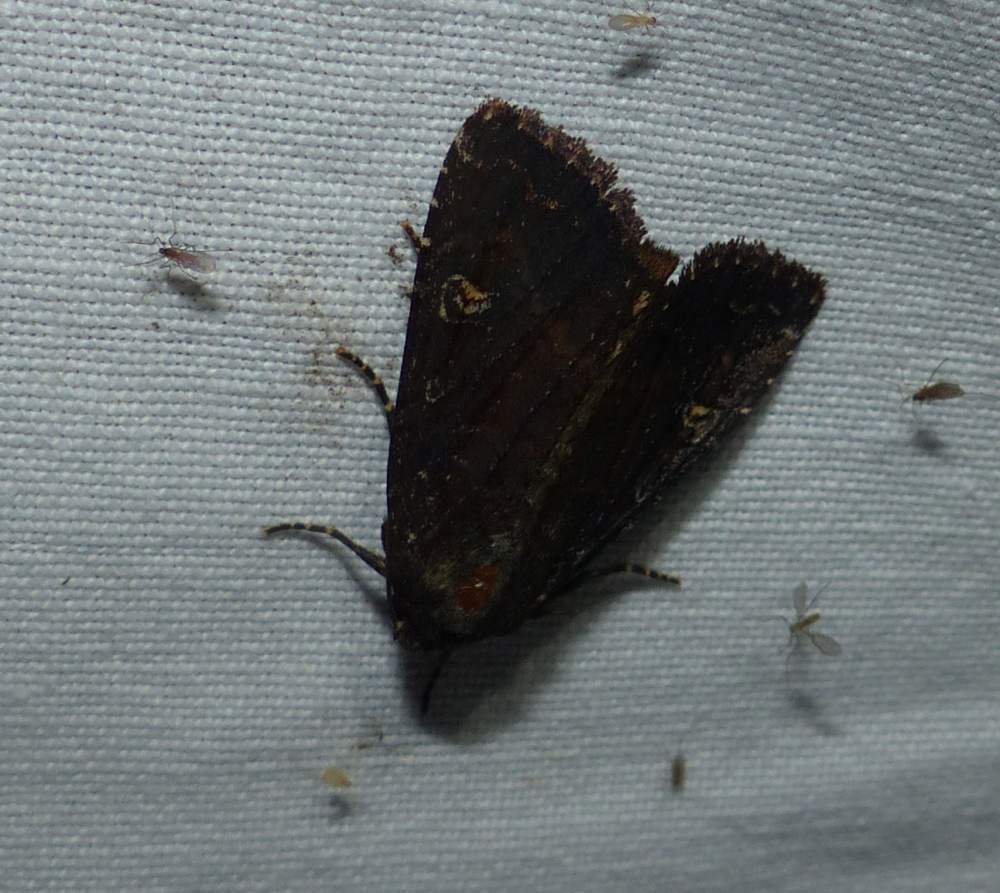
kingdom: Animalia
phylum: Arthropoda
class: Insecta
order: Lepidoptera
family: Noctuidae
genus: Apamea
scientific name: Apamea dubitans
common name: Doubtful apamea moth
